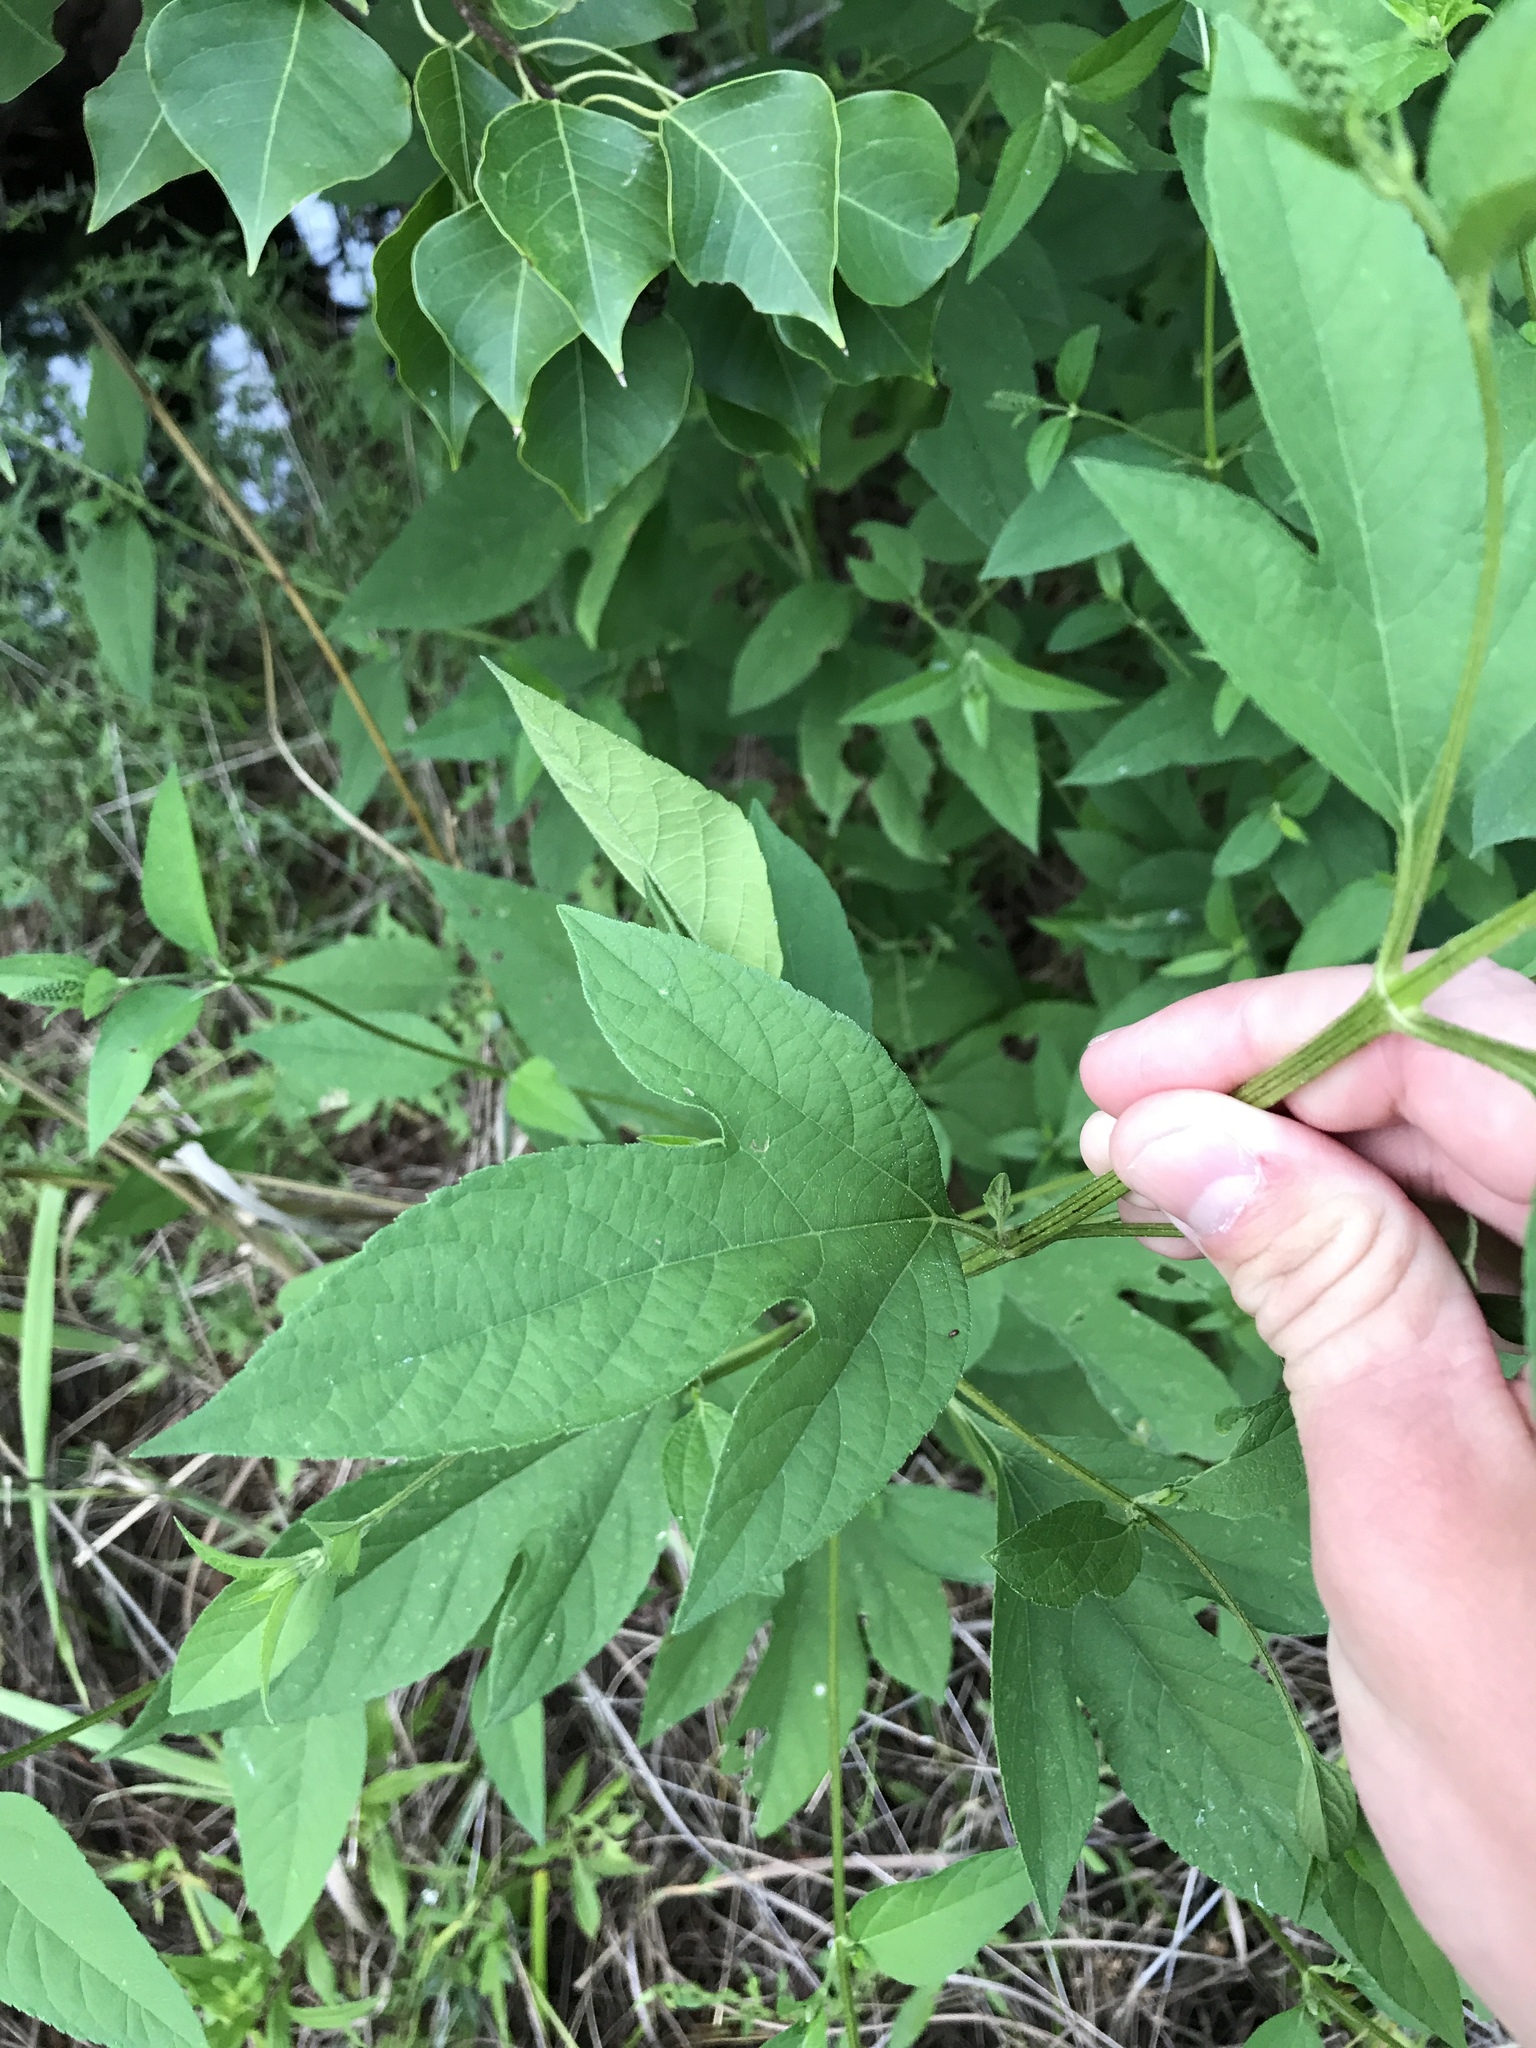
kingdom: Plantae
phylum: Tracheophyta
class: Magnoliopsida
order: Asterales
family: Asteraceae
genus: Ambrosia
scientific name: Ambrosia trifida
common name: Giant ragweed
